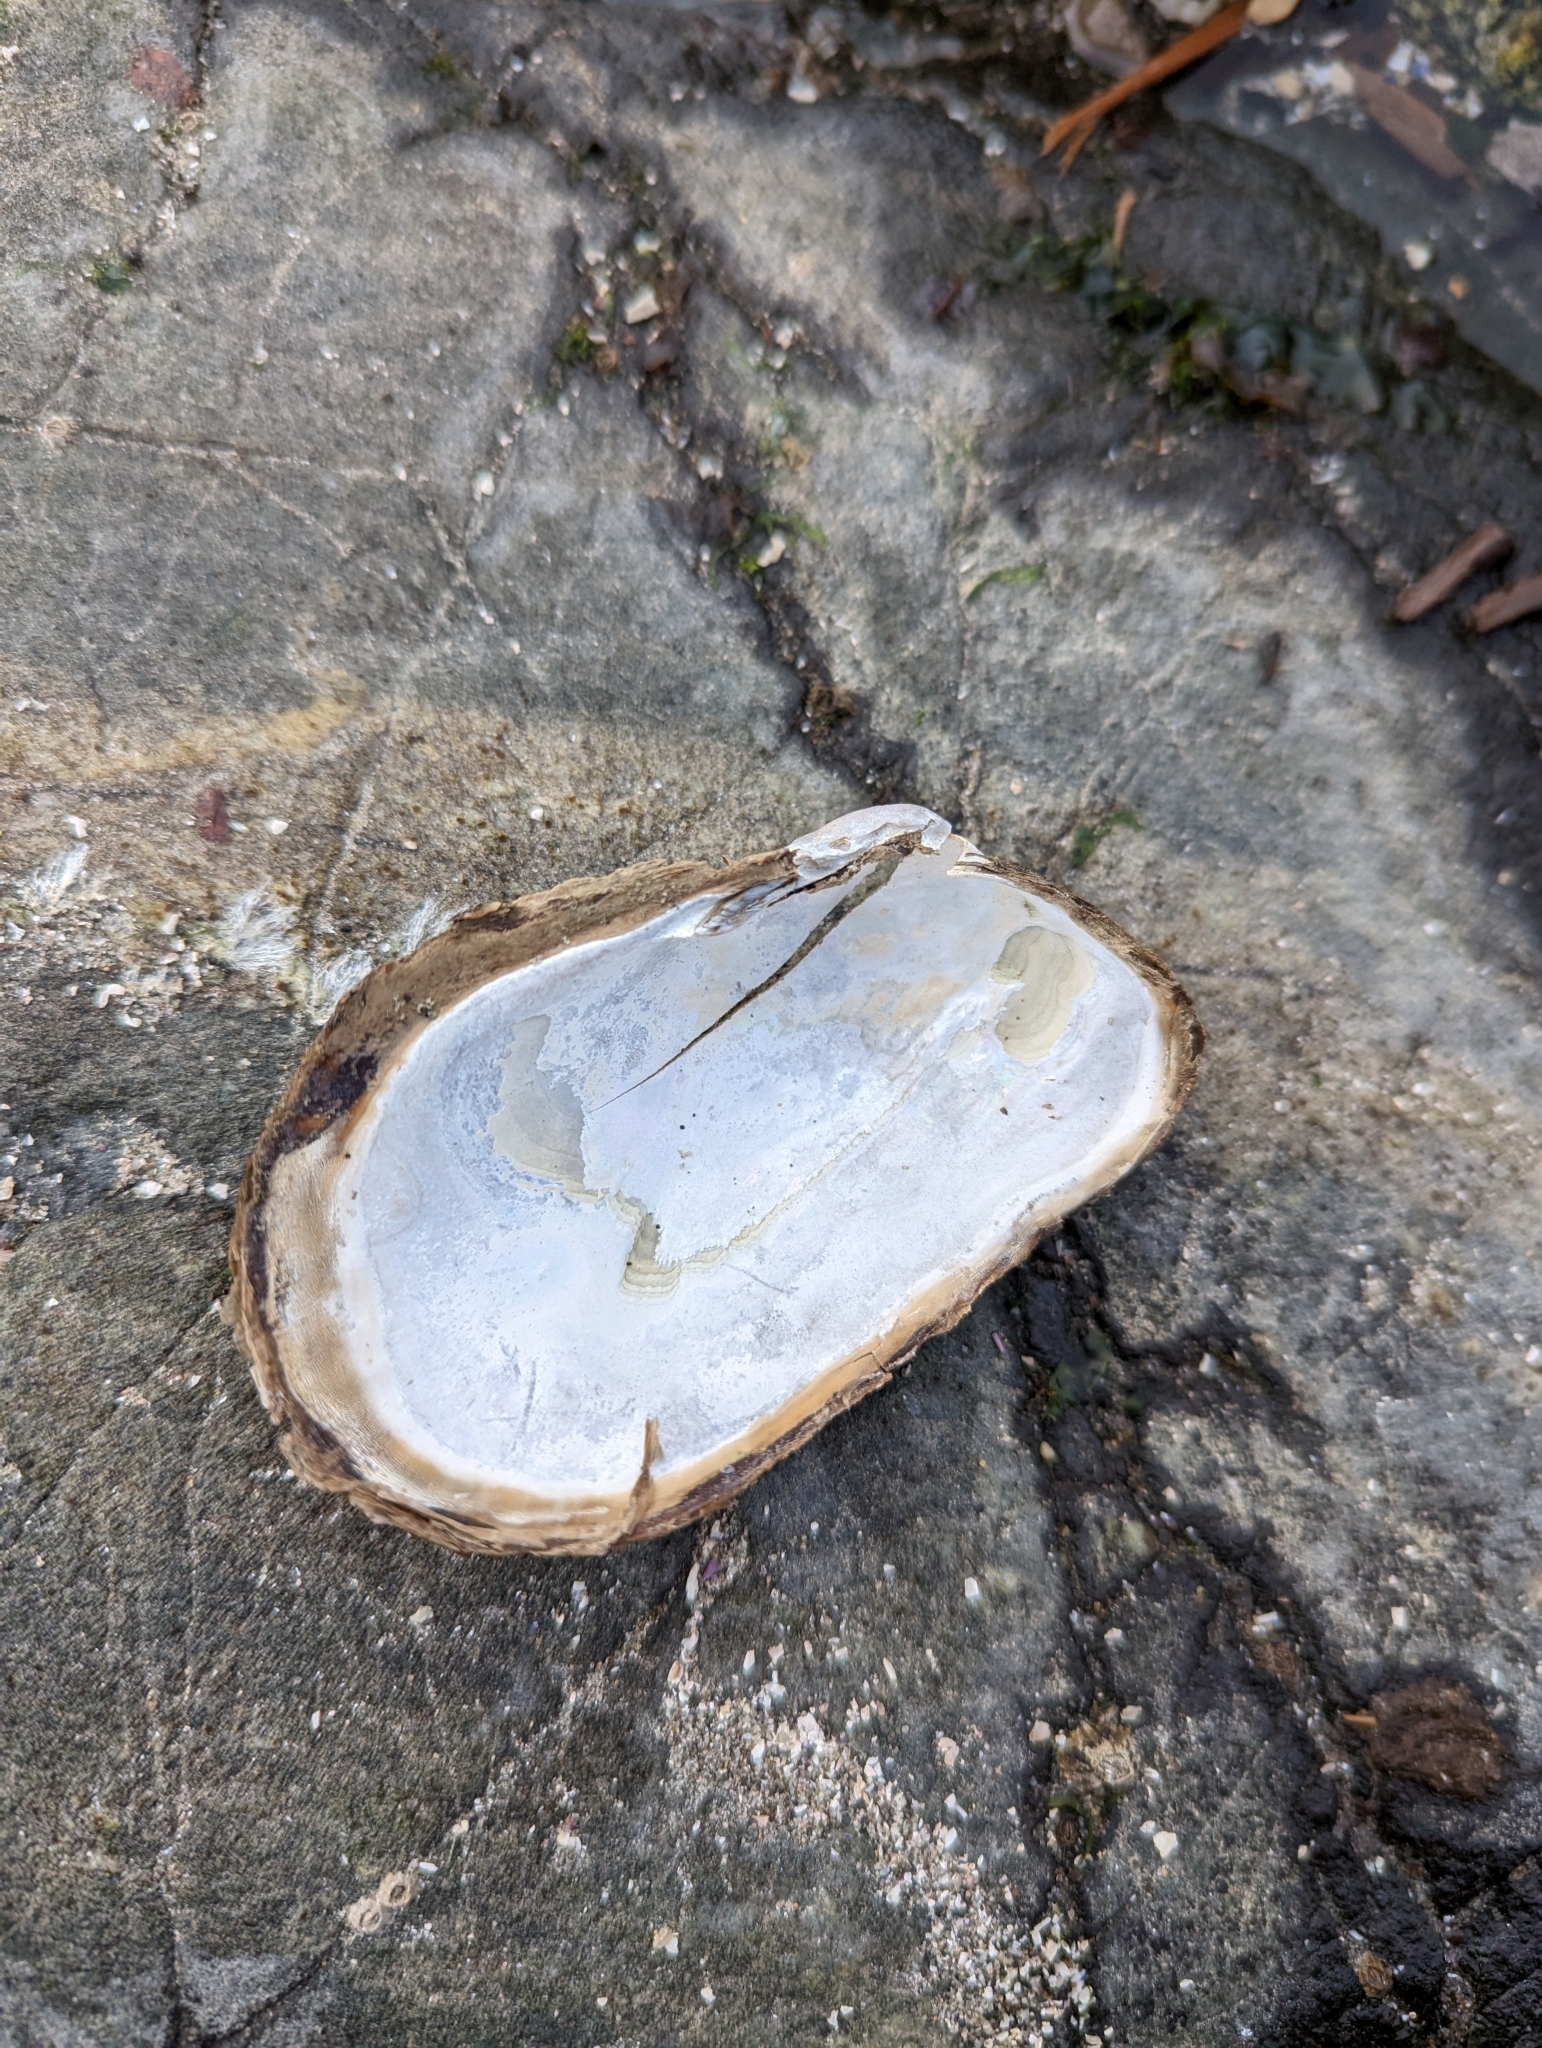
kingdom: Animalia
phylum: Mollusca
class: Bivalvia
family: Lyonsiidae
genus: Entodesma
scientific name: Entodesma navicula
